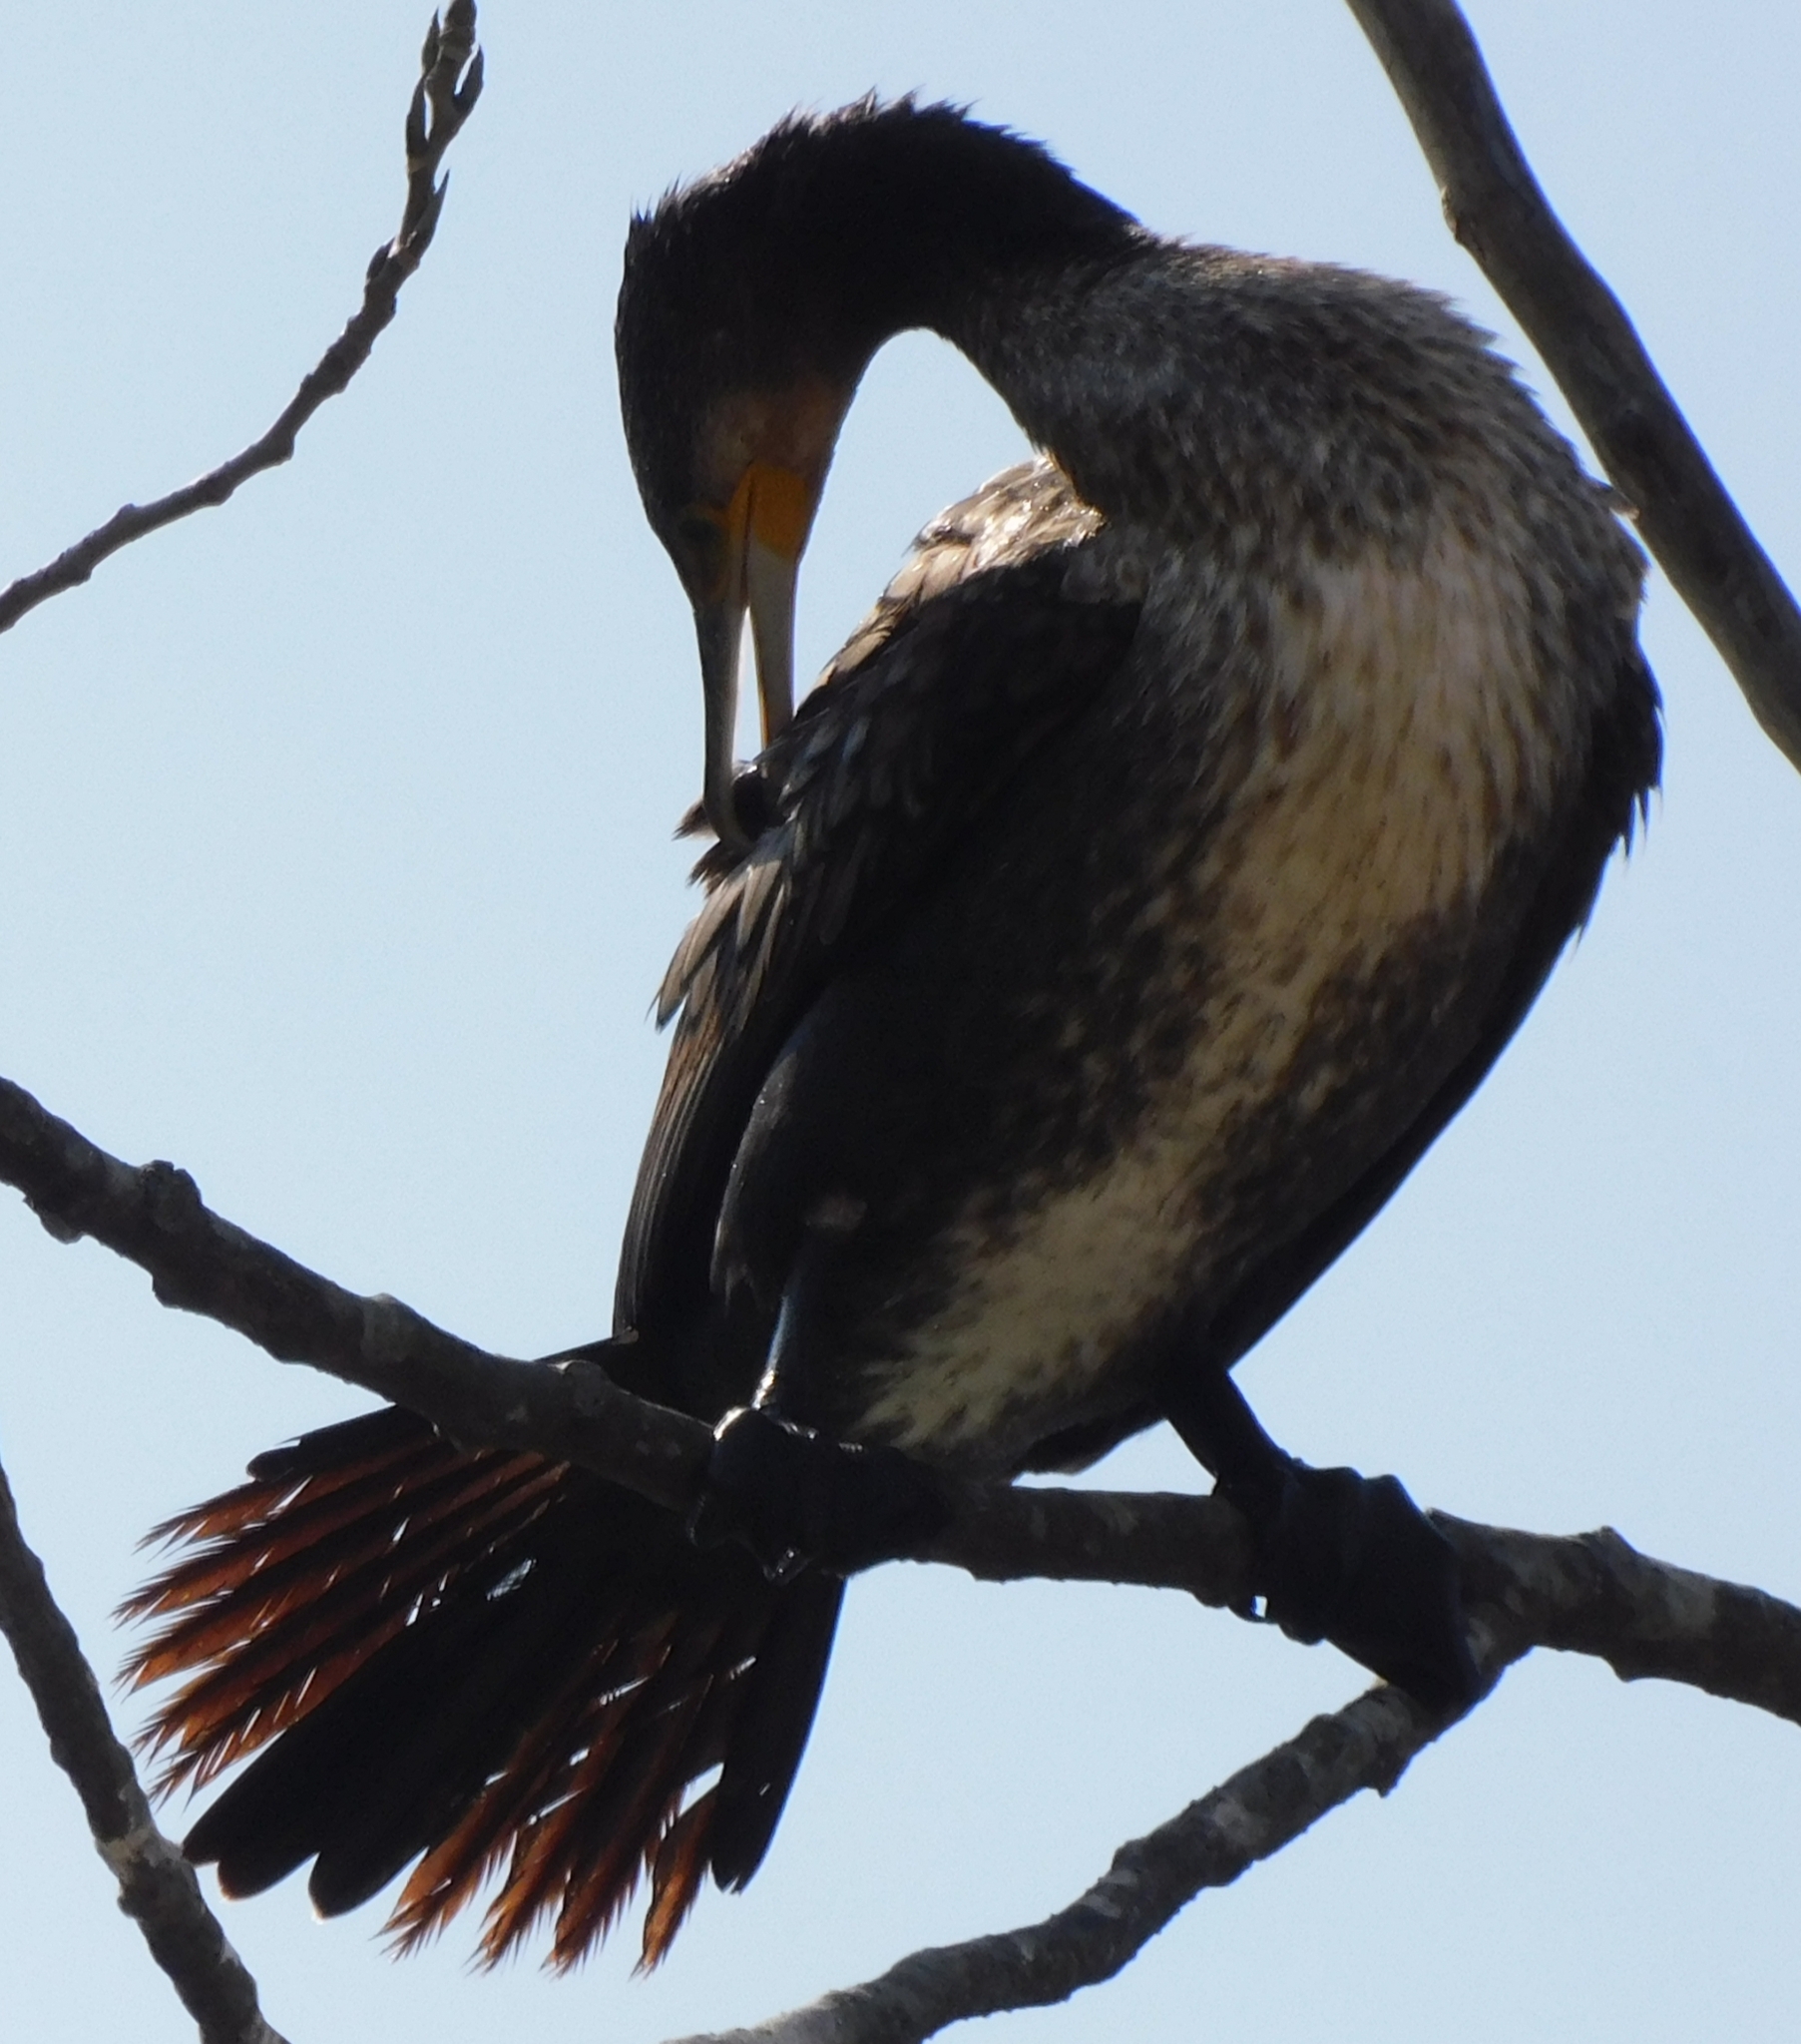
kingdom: Animalia
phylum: Chordata
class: Aves
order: Suliformes
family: Phalacrocoracidae
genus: Phalacrocorax
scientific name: Phalacrocorax carbo
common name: Great cormorant
